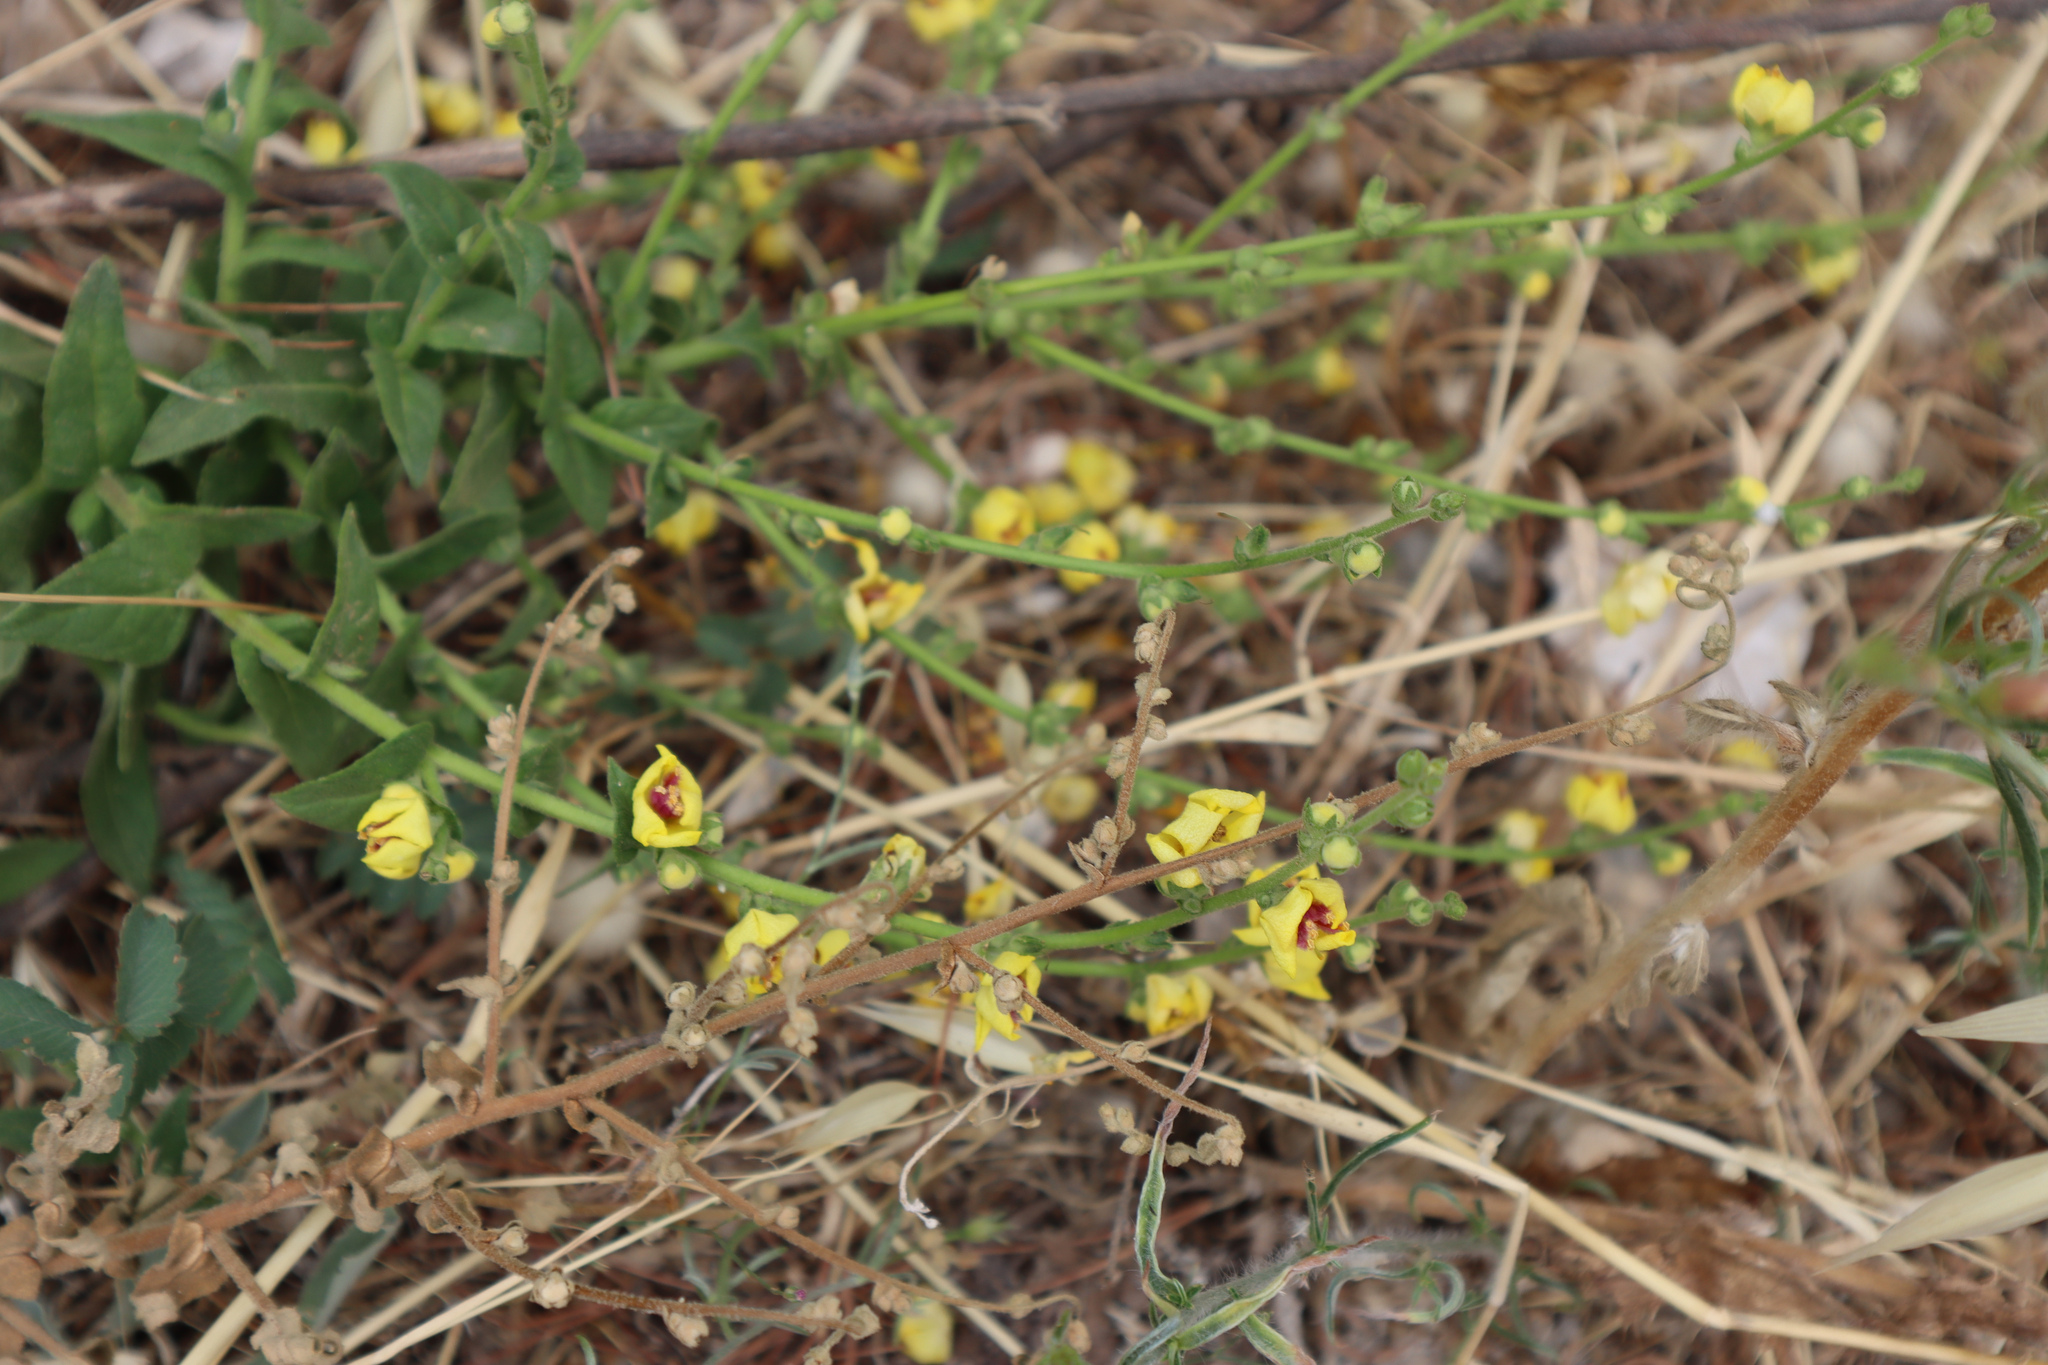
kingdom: Plantae
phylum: Tracheophyta
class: Magnoliopsida
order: Lamiales
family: Scrophulariaceae
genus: Verbascum
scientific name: Verbascum sinuatum
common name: Wavyleaf mullein
